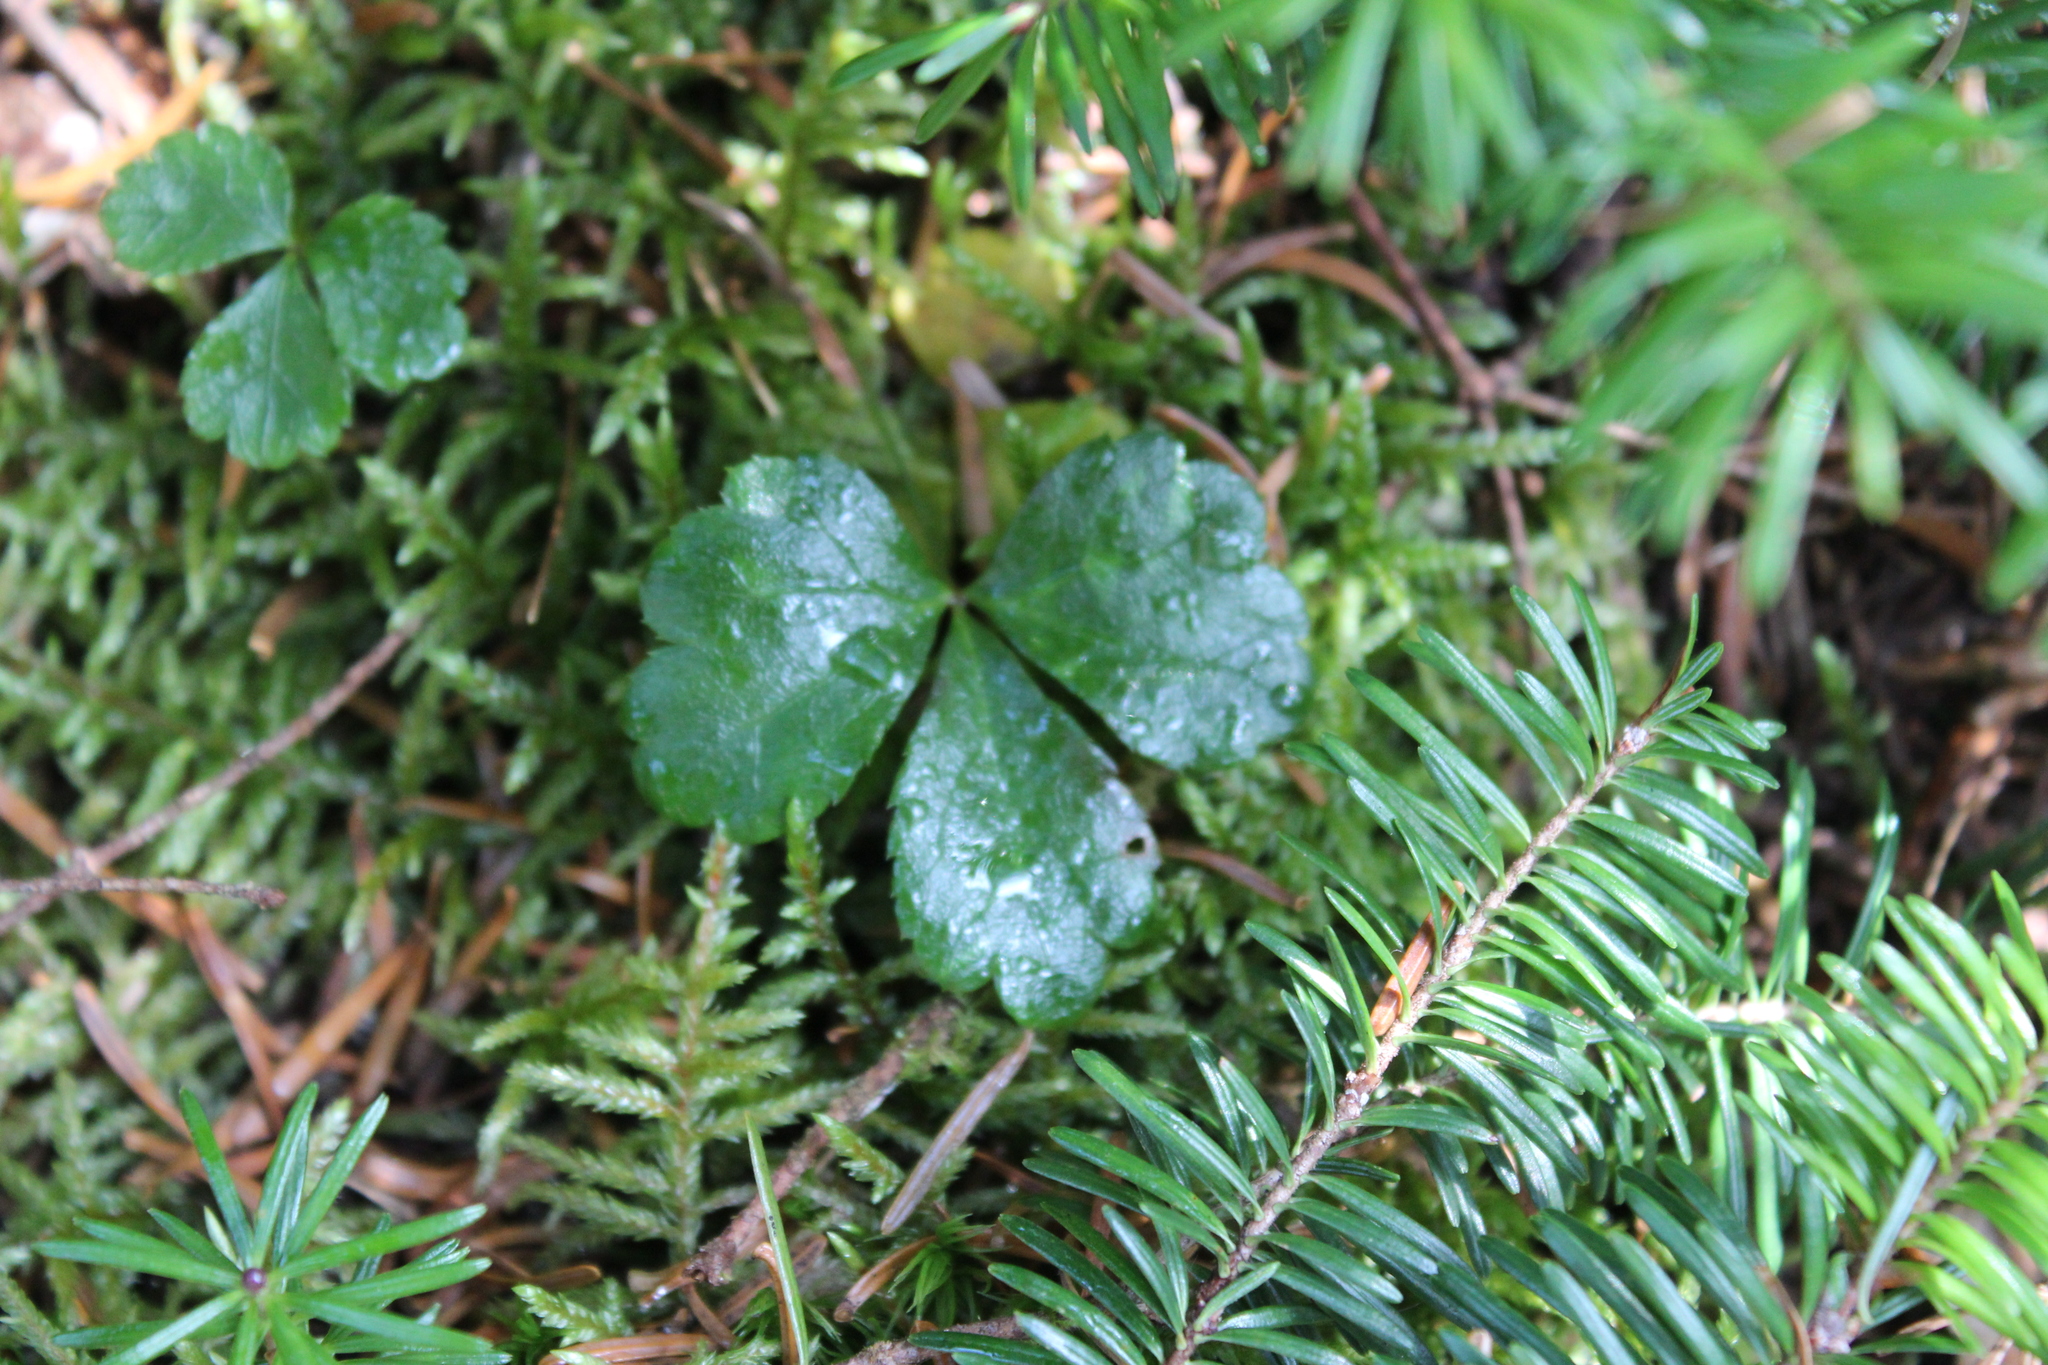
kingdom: Plantae
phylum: Tracheophyta
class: Magnoliopsida
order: Ranunculales
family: Ranunculaceae
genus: Coptis
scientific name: Coptis trifolia
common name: Canker-root
